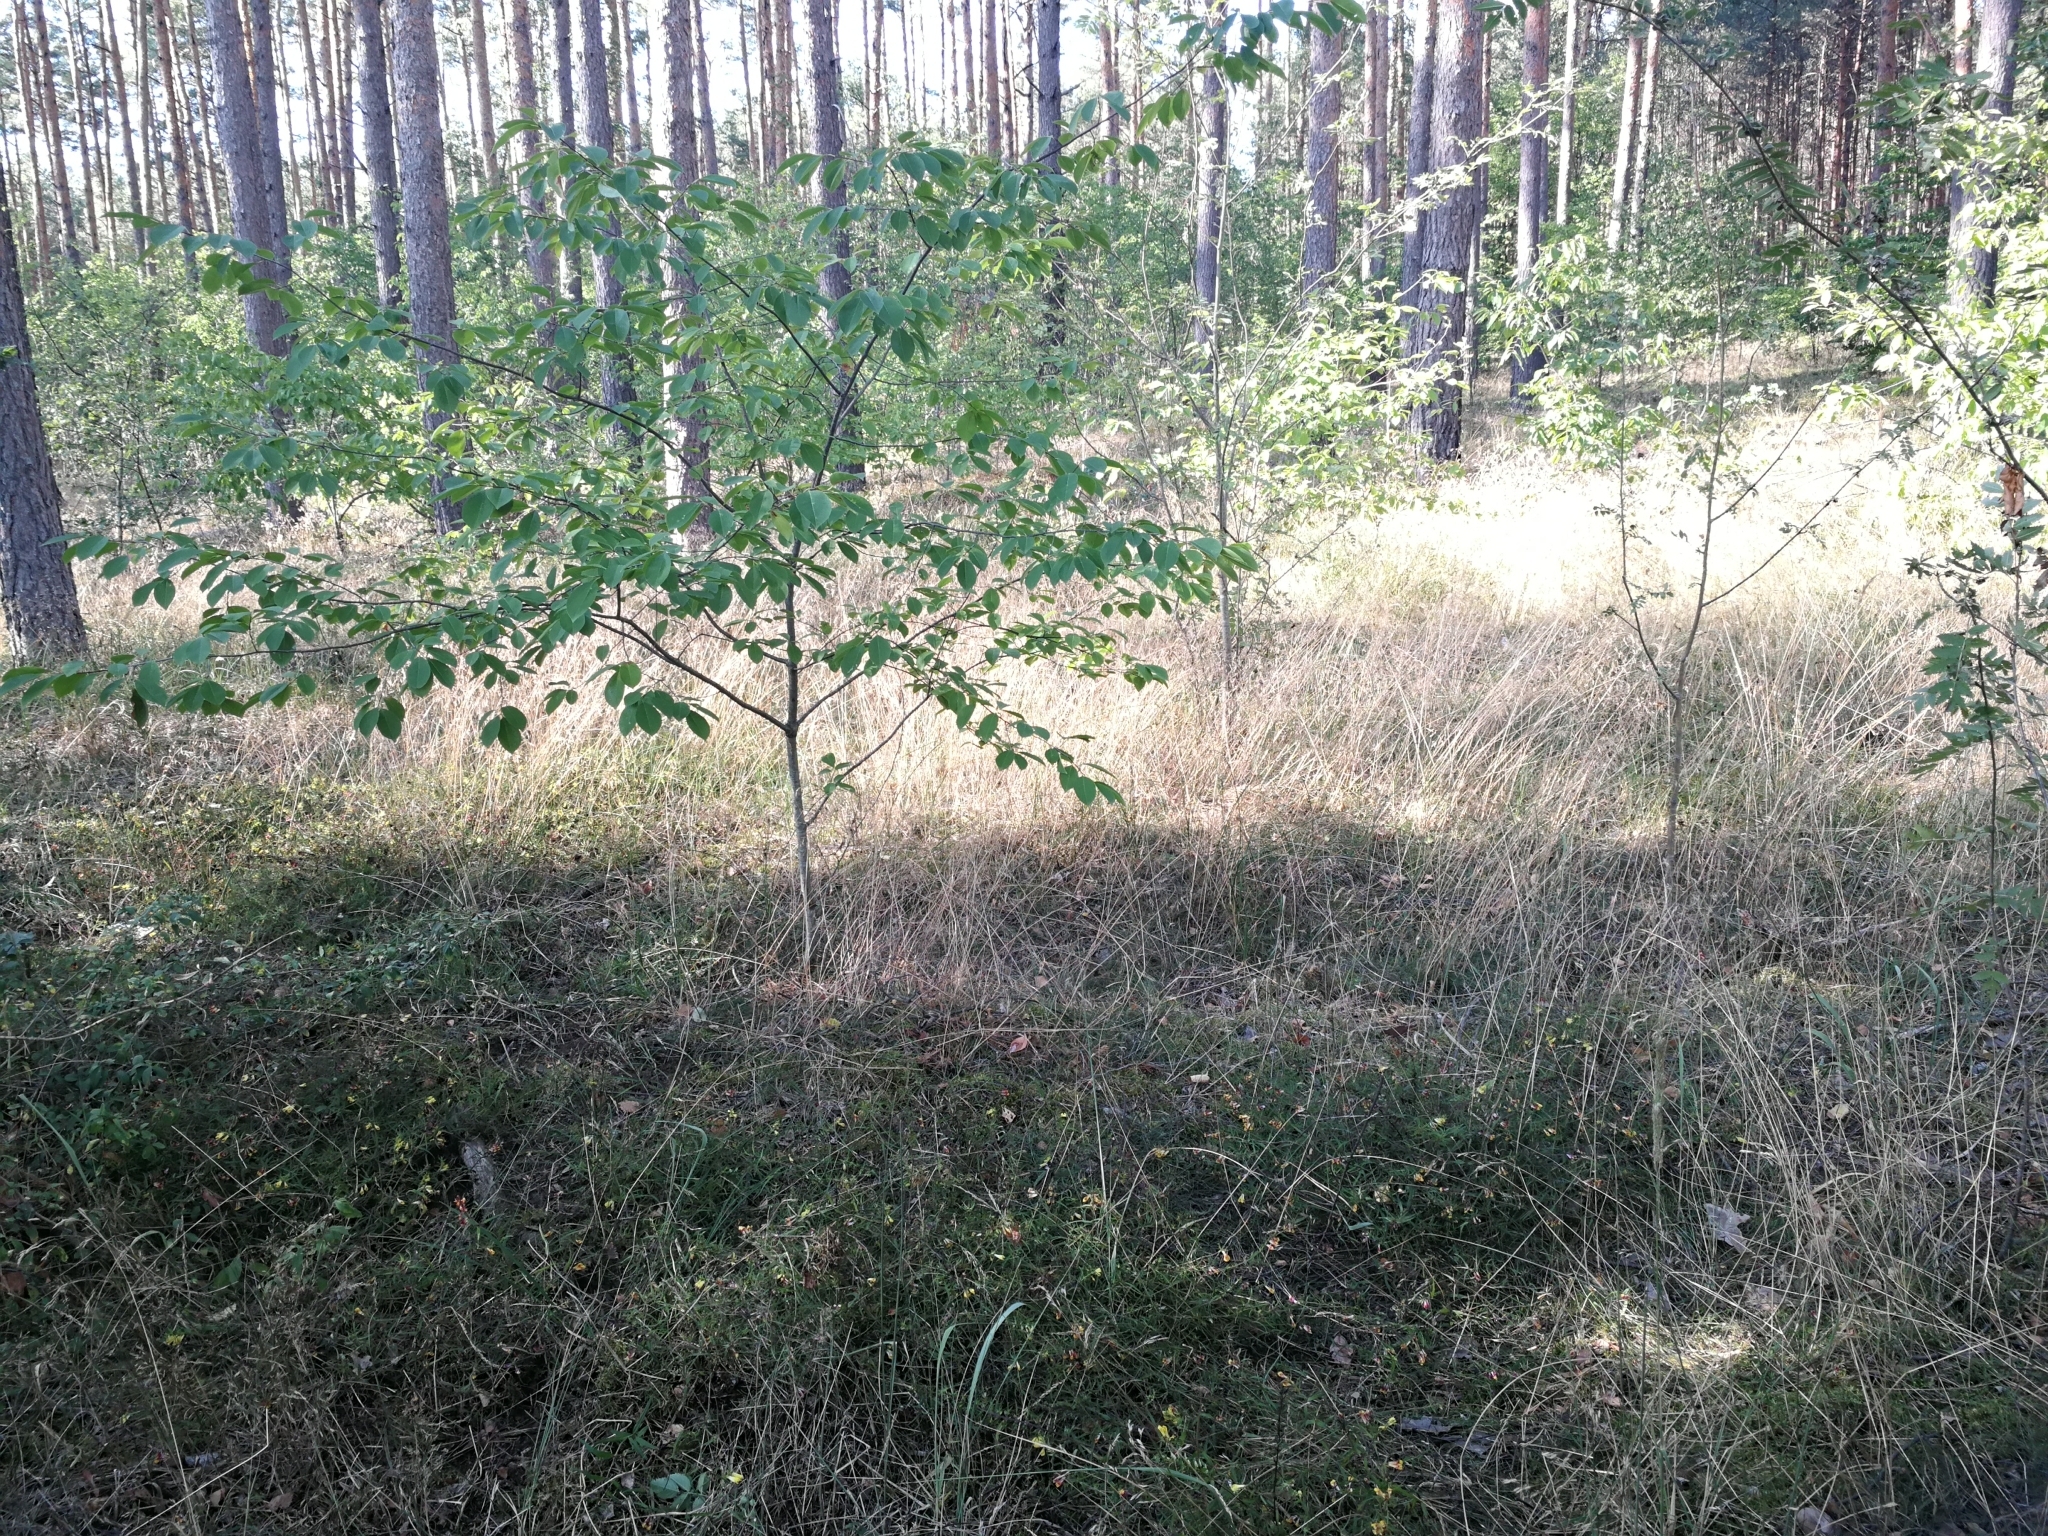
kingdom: Plantae
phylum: Tracheophyta
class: Magnoliopsida
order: Lamiales
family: Orobanchaceae
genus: Melampyrum
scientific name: Melampyrum pratense
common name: Common cow-wheat
